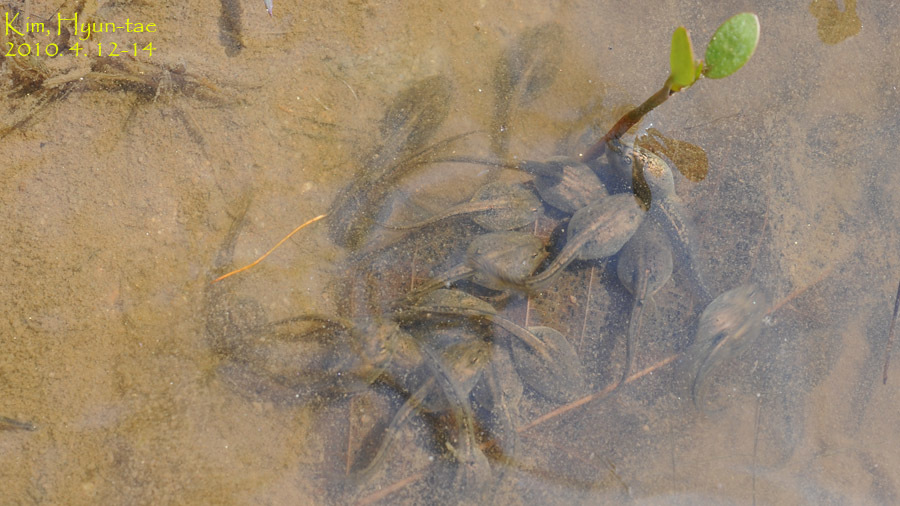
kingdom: Animalia
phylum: Chordata
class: Amphibia
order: Anura
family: Ranidae
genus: Rana
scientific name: Rana coreana
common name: Korean brown frog
